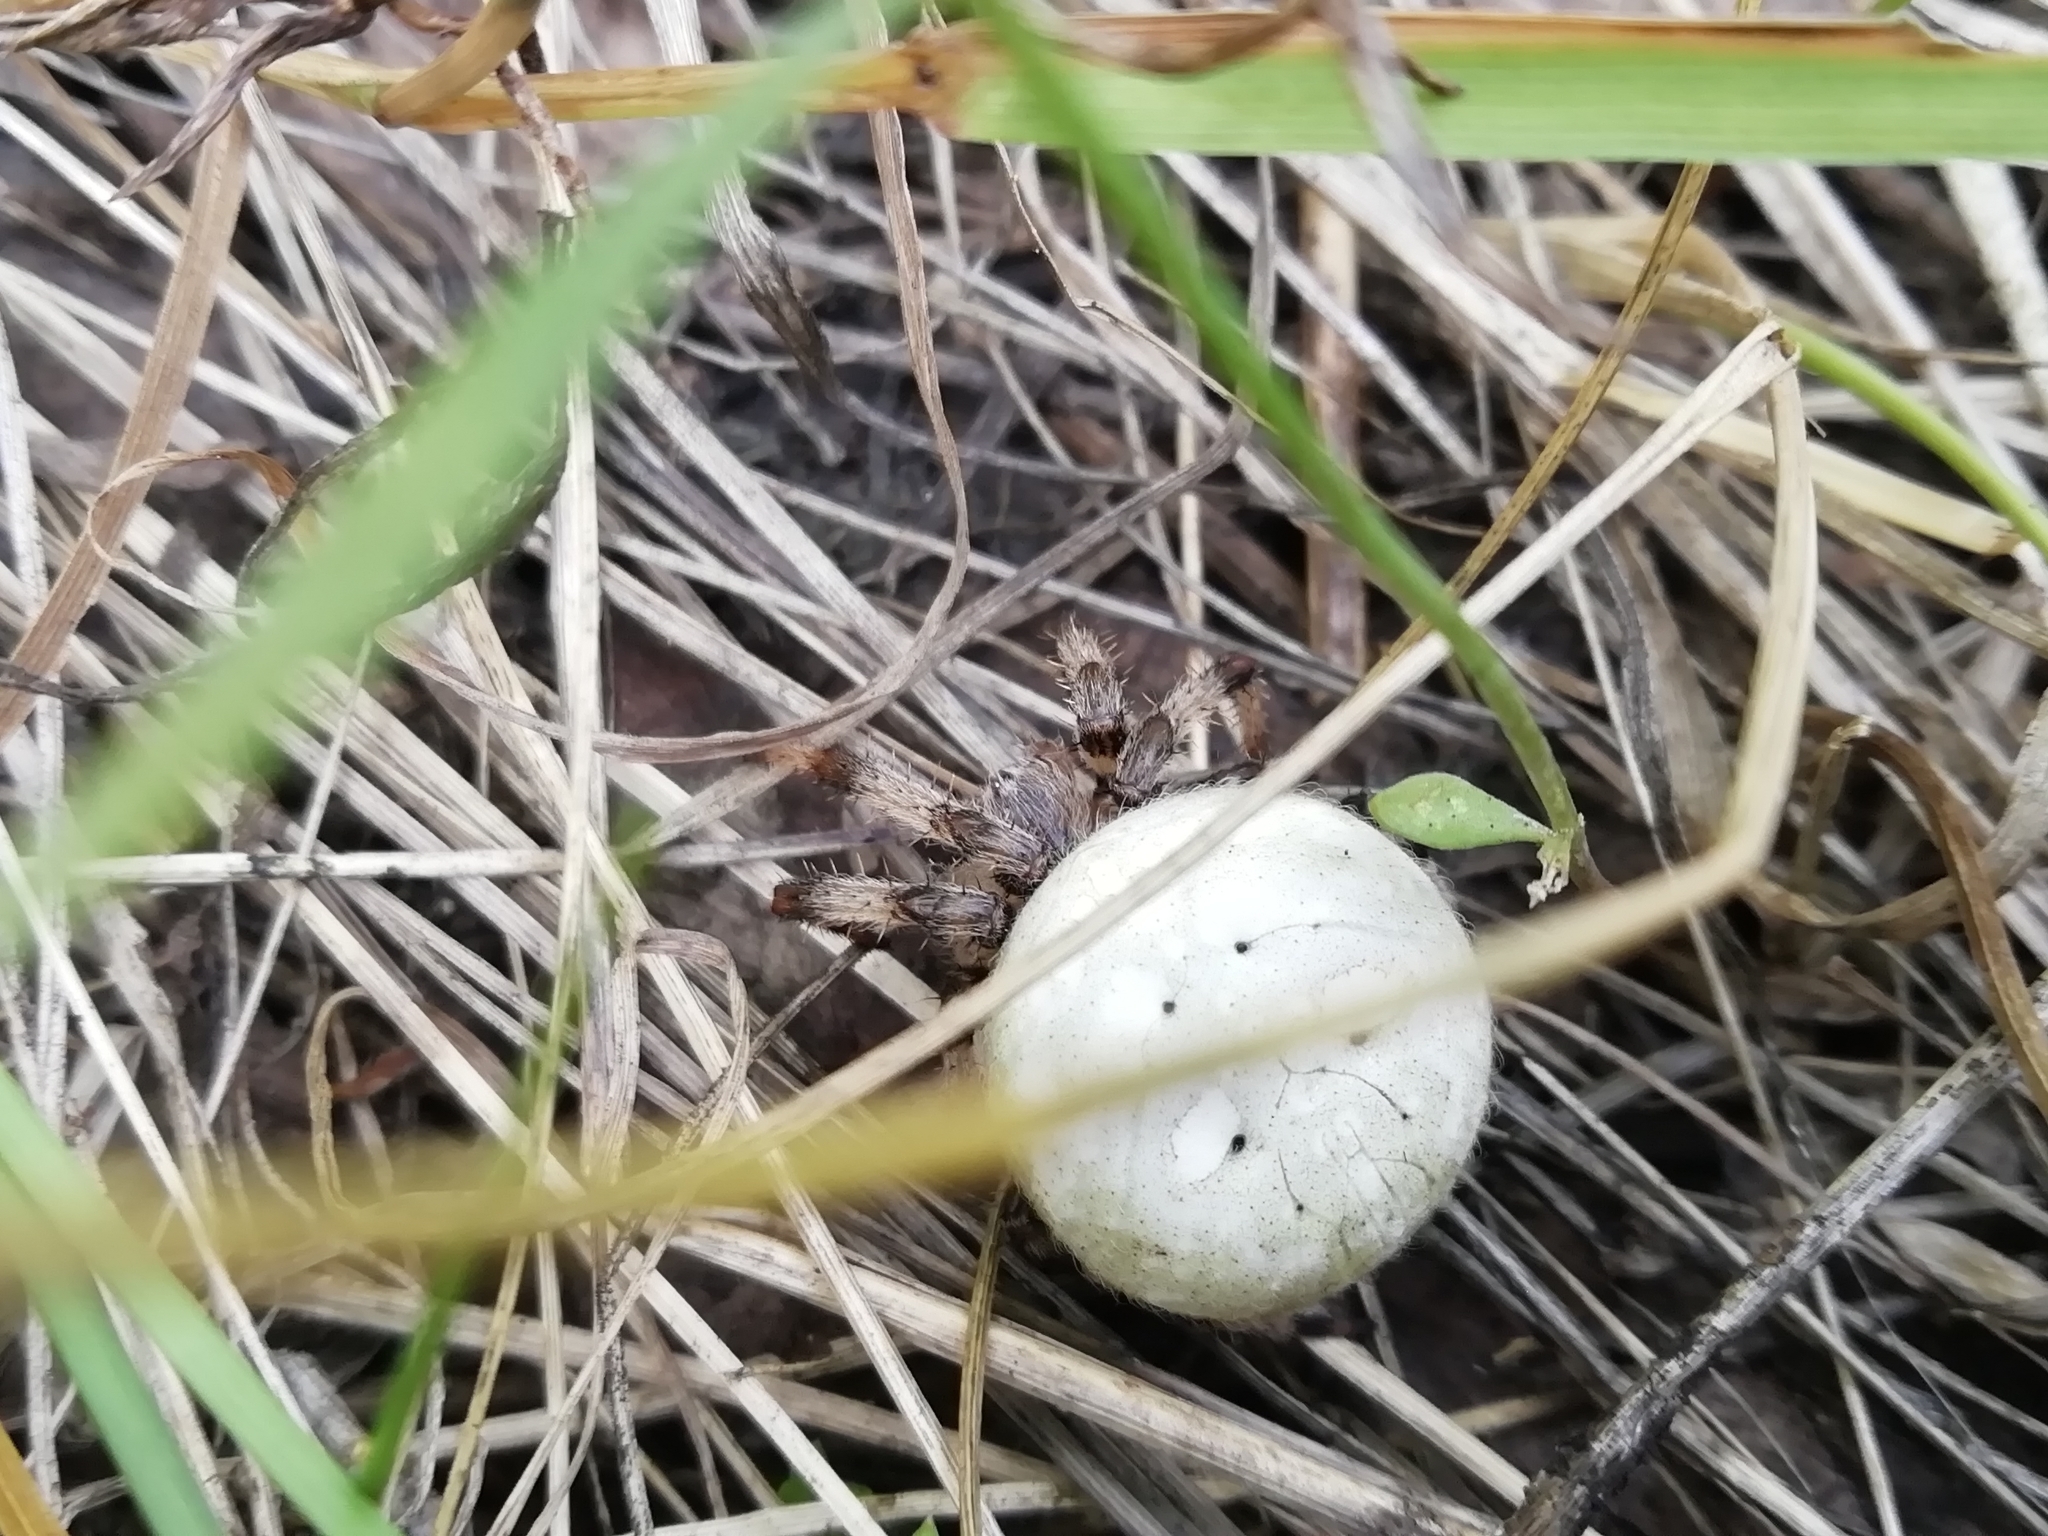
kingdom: Animalia
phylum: Arthropoda
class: Arachnida
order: Araneae
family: Araneidae
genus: Araneus
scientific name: Araneus quadratus
